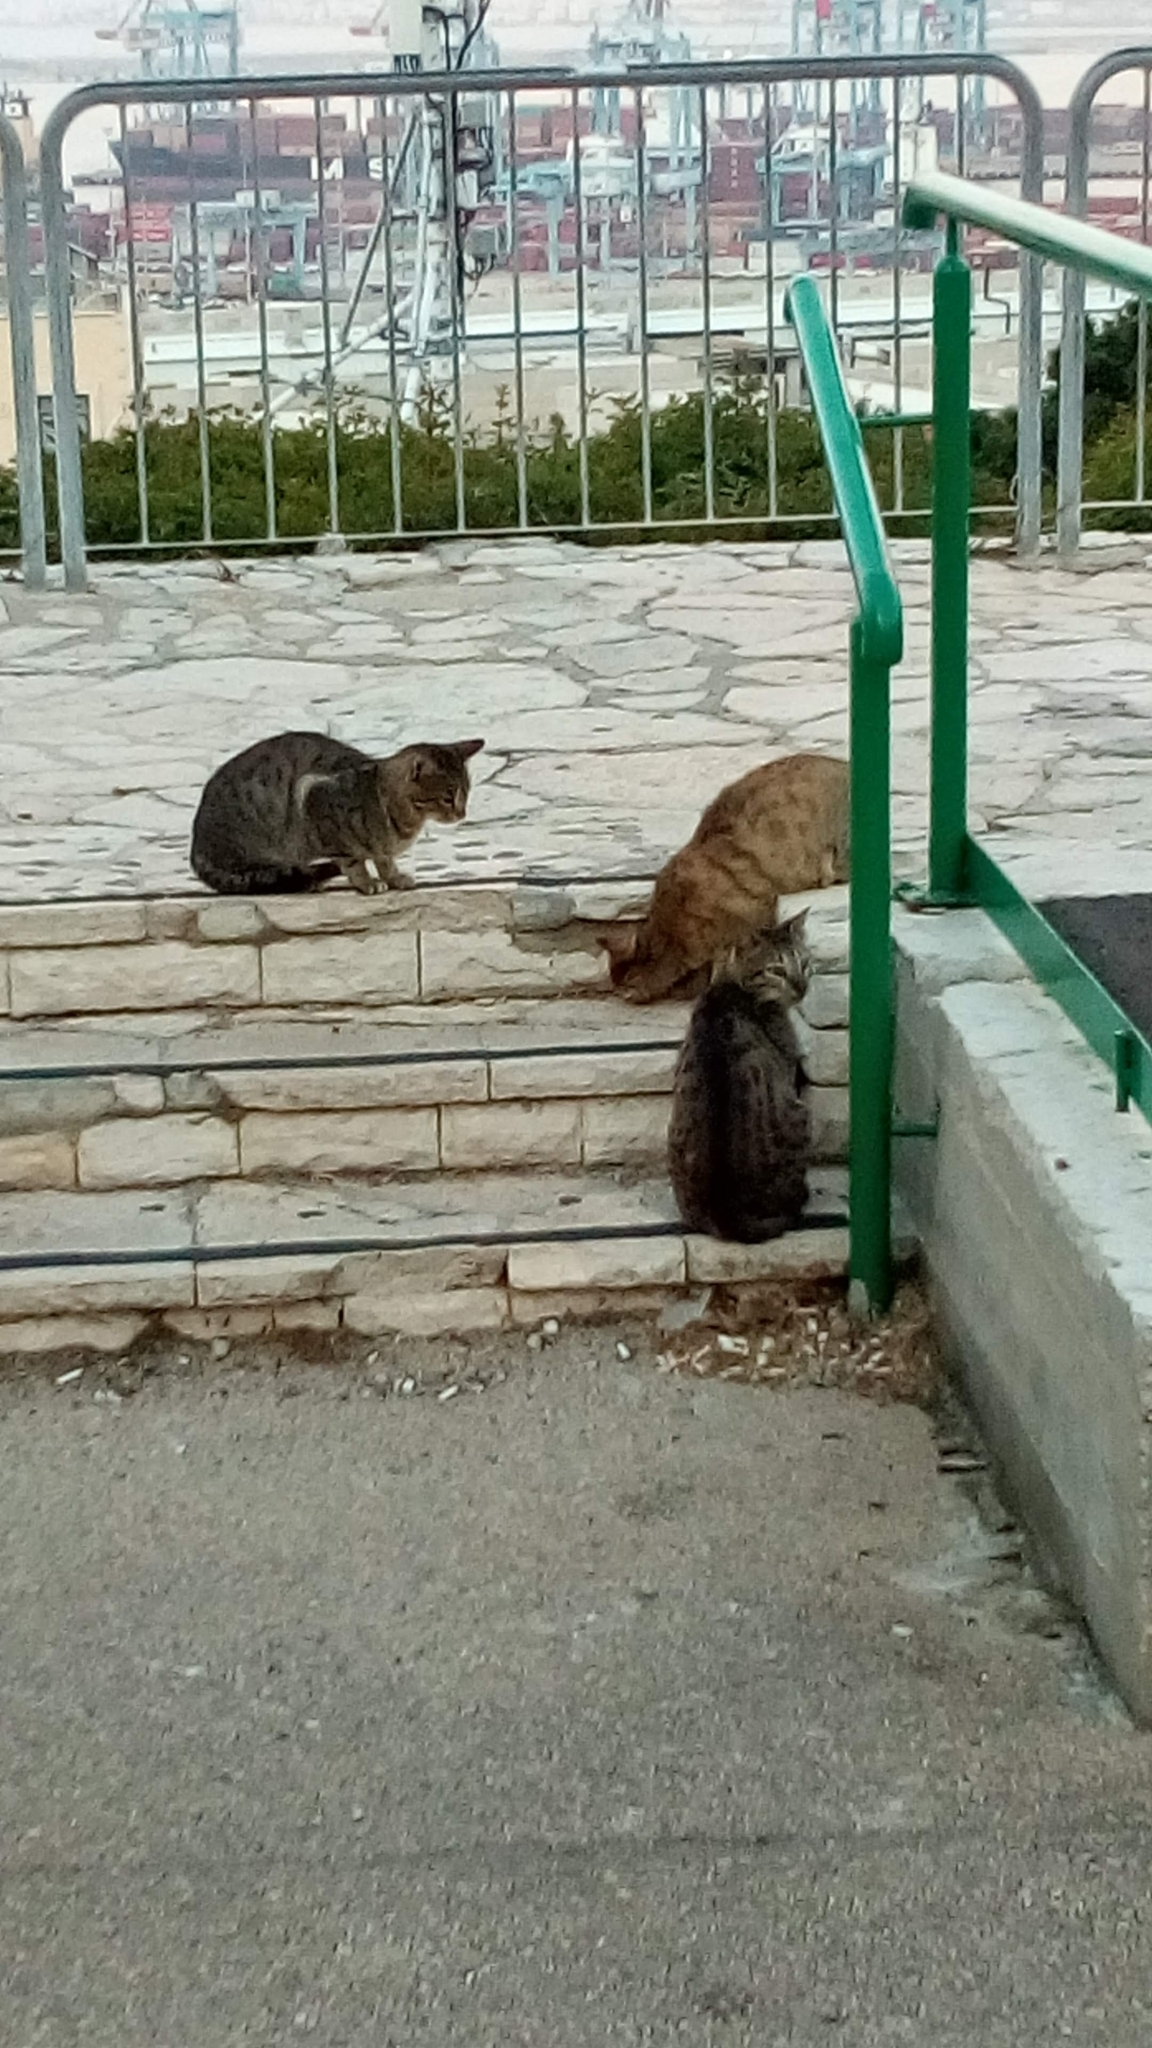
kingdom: Animalia
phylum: Chordata
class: Mammalia
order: Carnivora
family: Felidae
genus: Felis
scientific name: Felis catus
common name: Domestic cat
